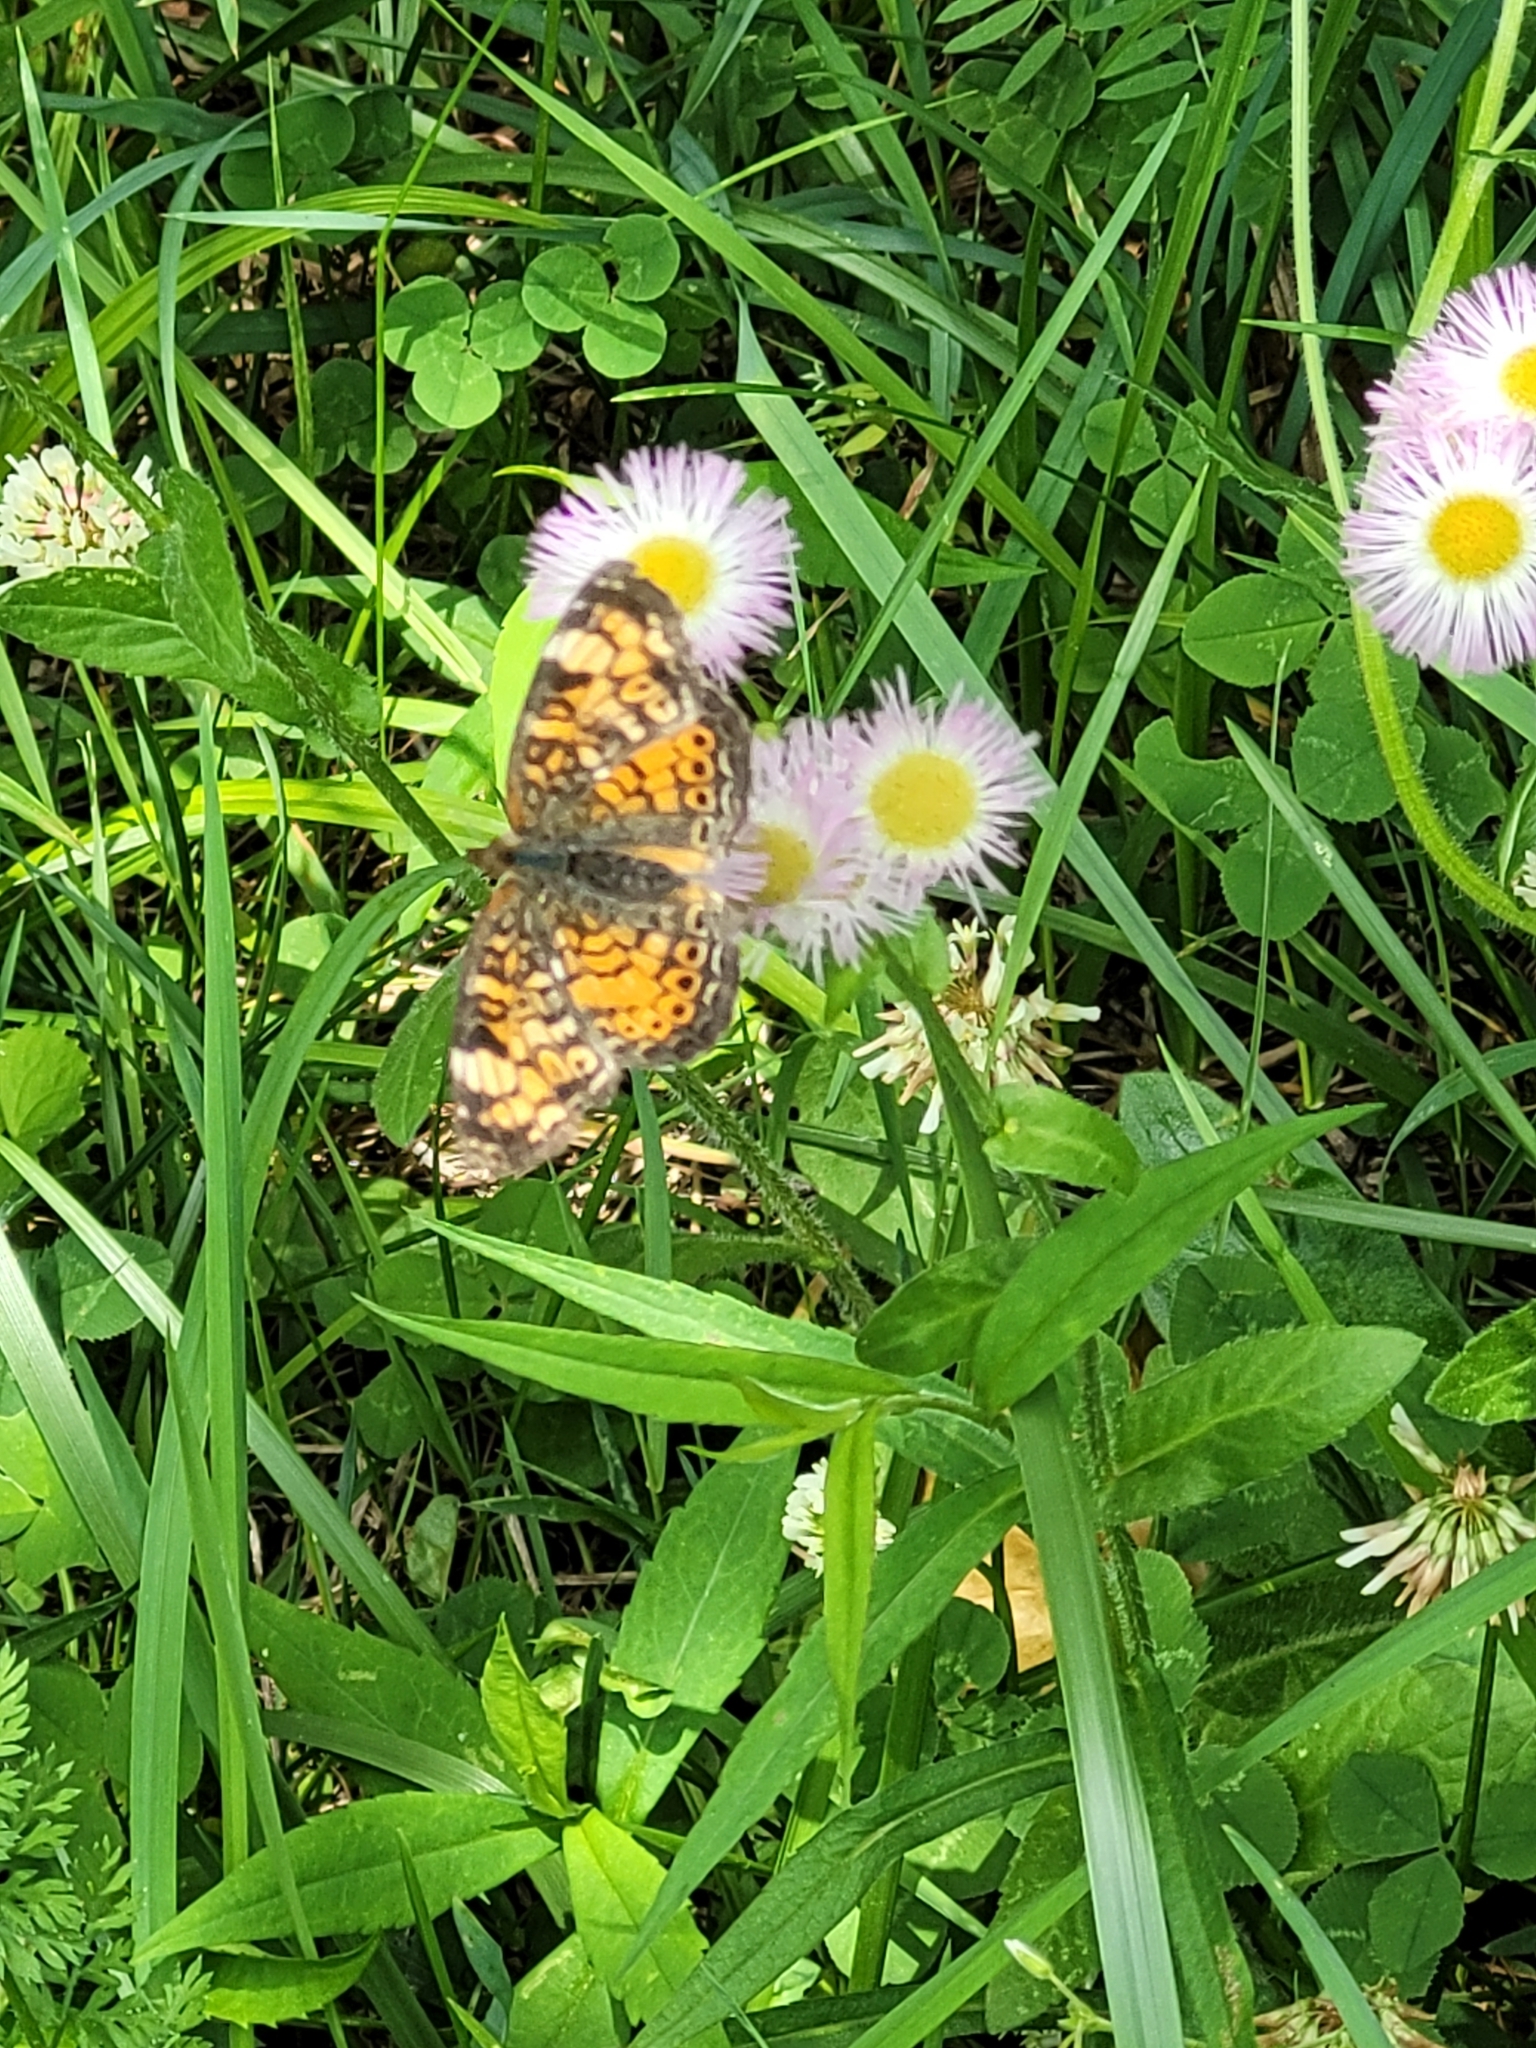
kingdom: Animalia
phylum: Arthropoda
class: Insecta
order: Lepidoptera
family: Nymphalidae
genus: Phyciodes
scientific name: Phyciodes tharos
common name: Pearl crescent
